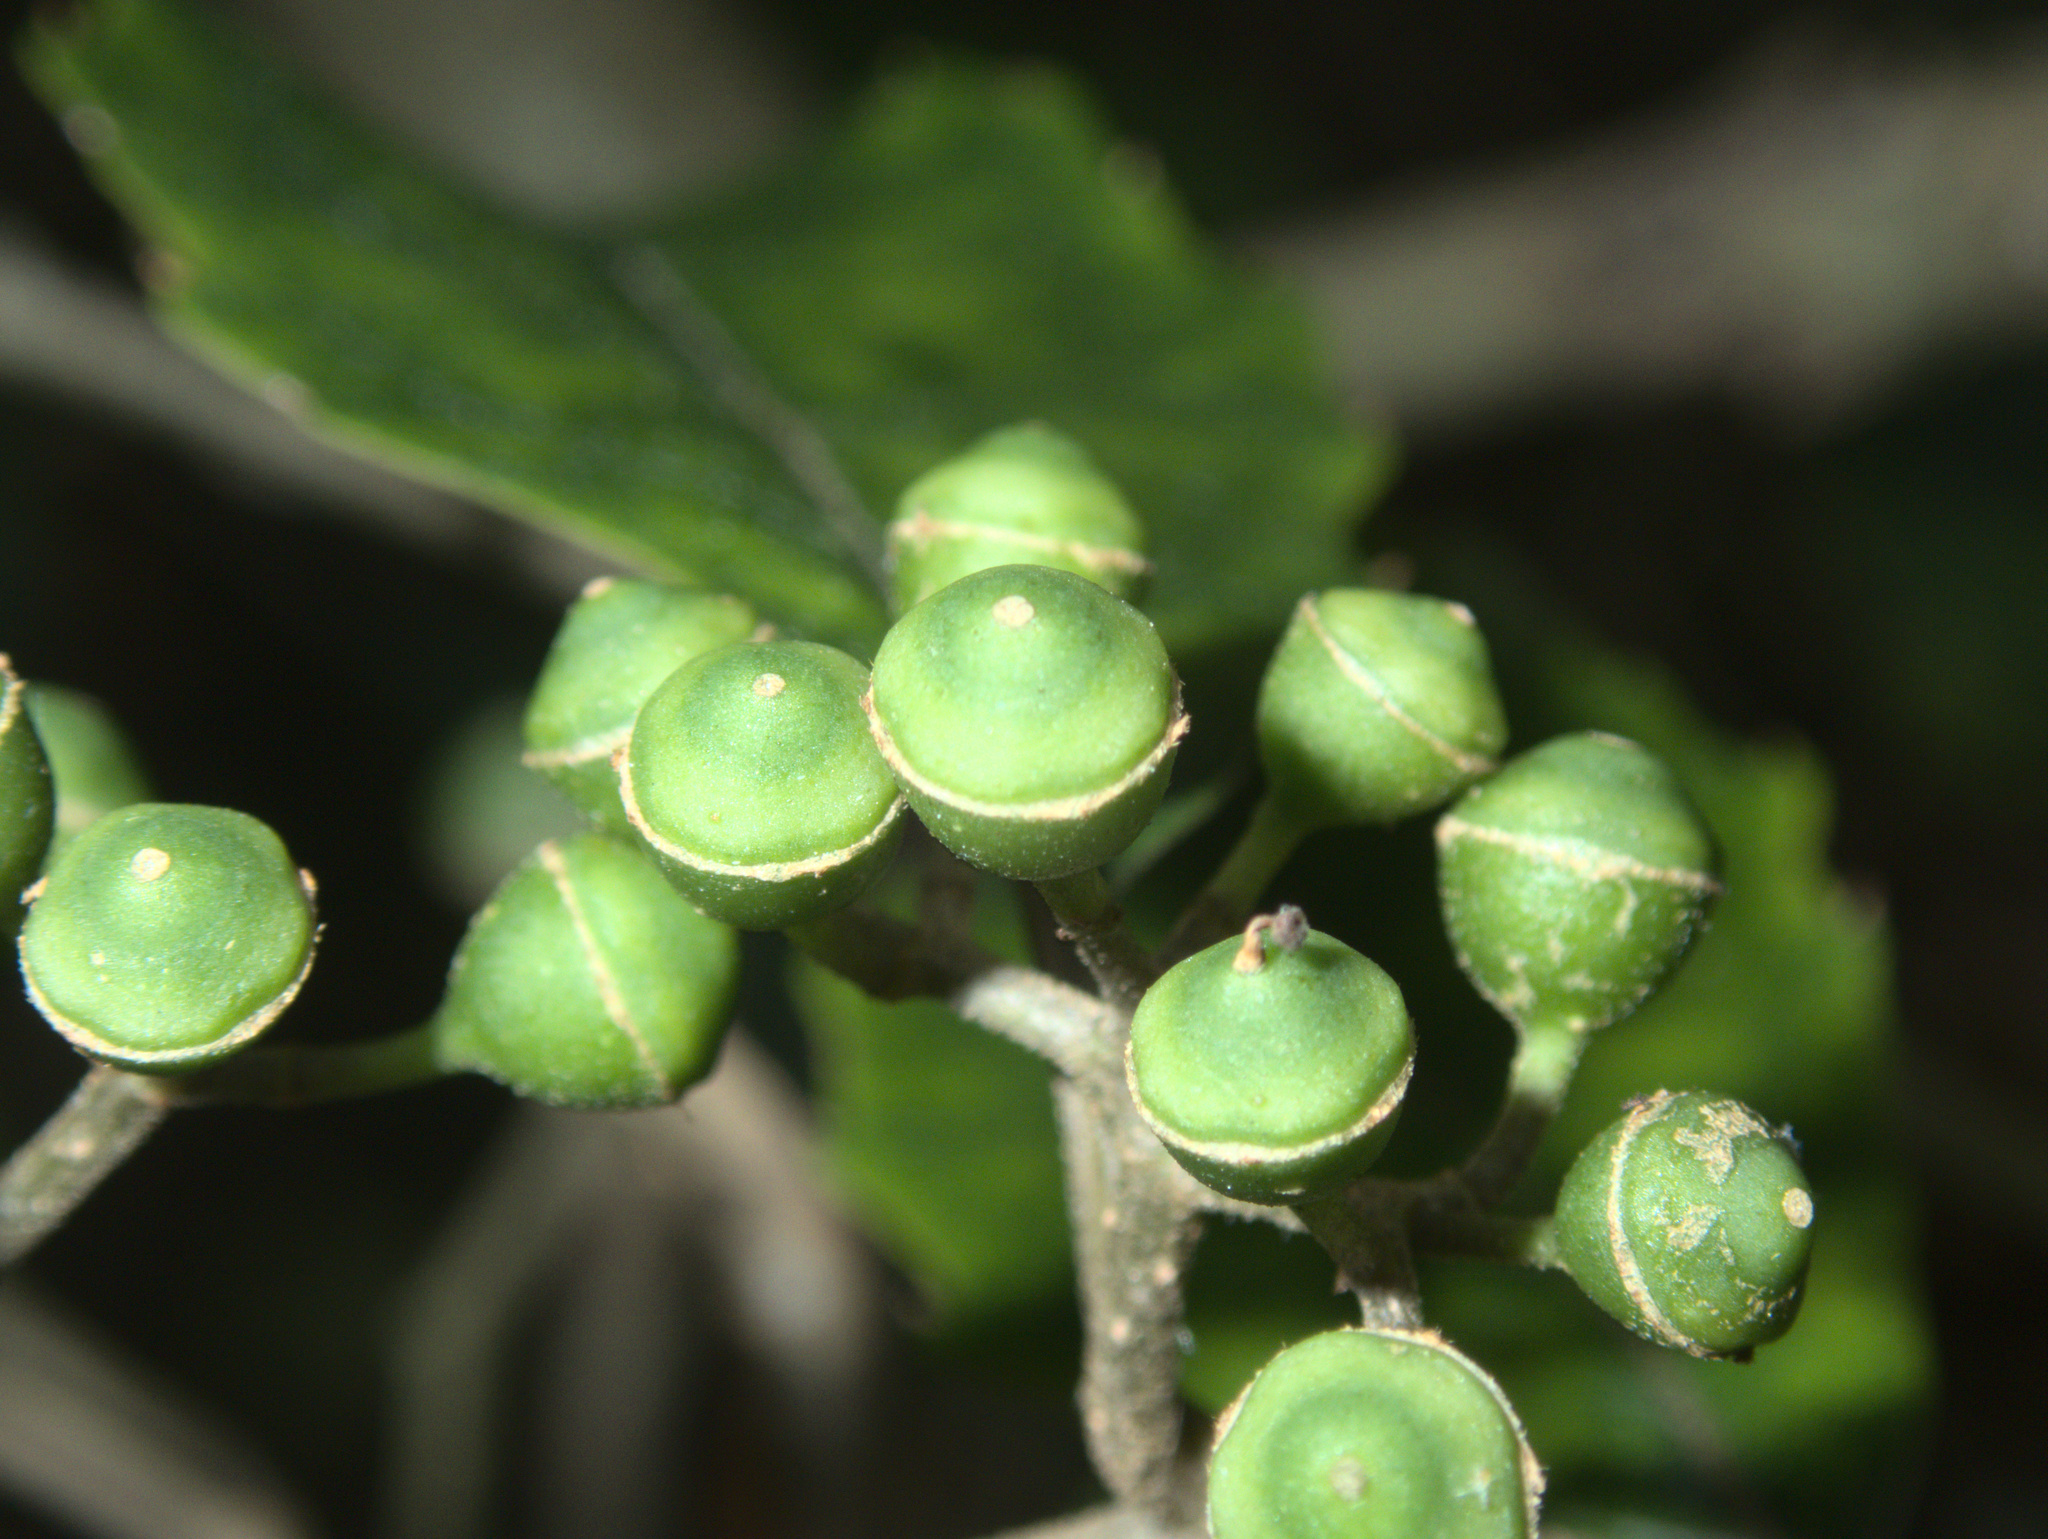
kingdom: Plantae
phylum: Tracheophyta
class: Magnoliopsida
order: Asterales
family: Rousseaceae
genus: Carpodetus
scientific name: Carpodetus serratus
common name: White mapau
